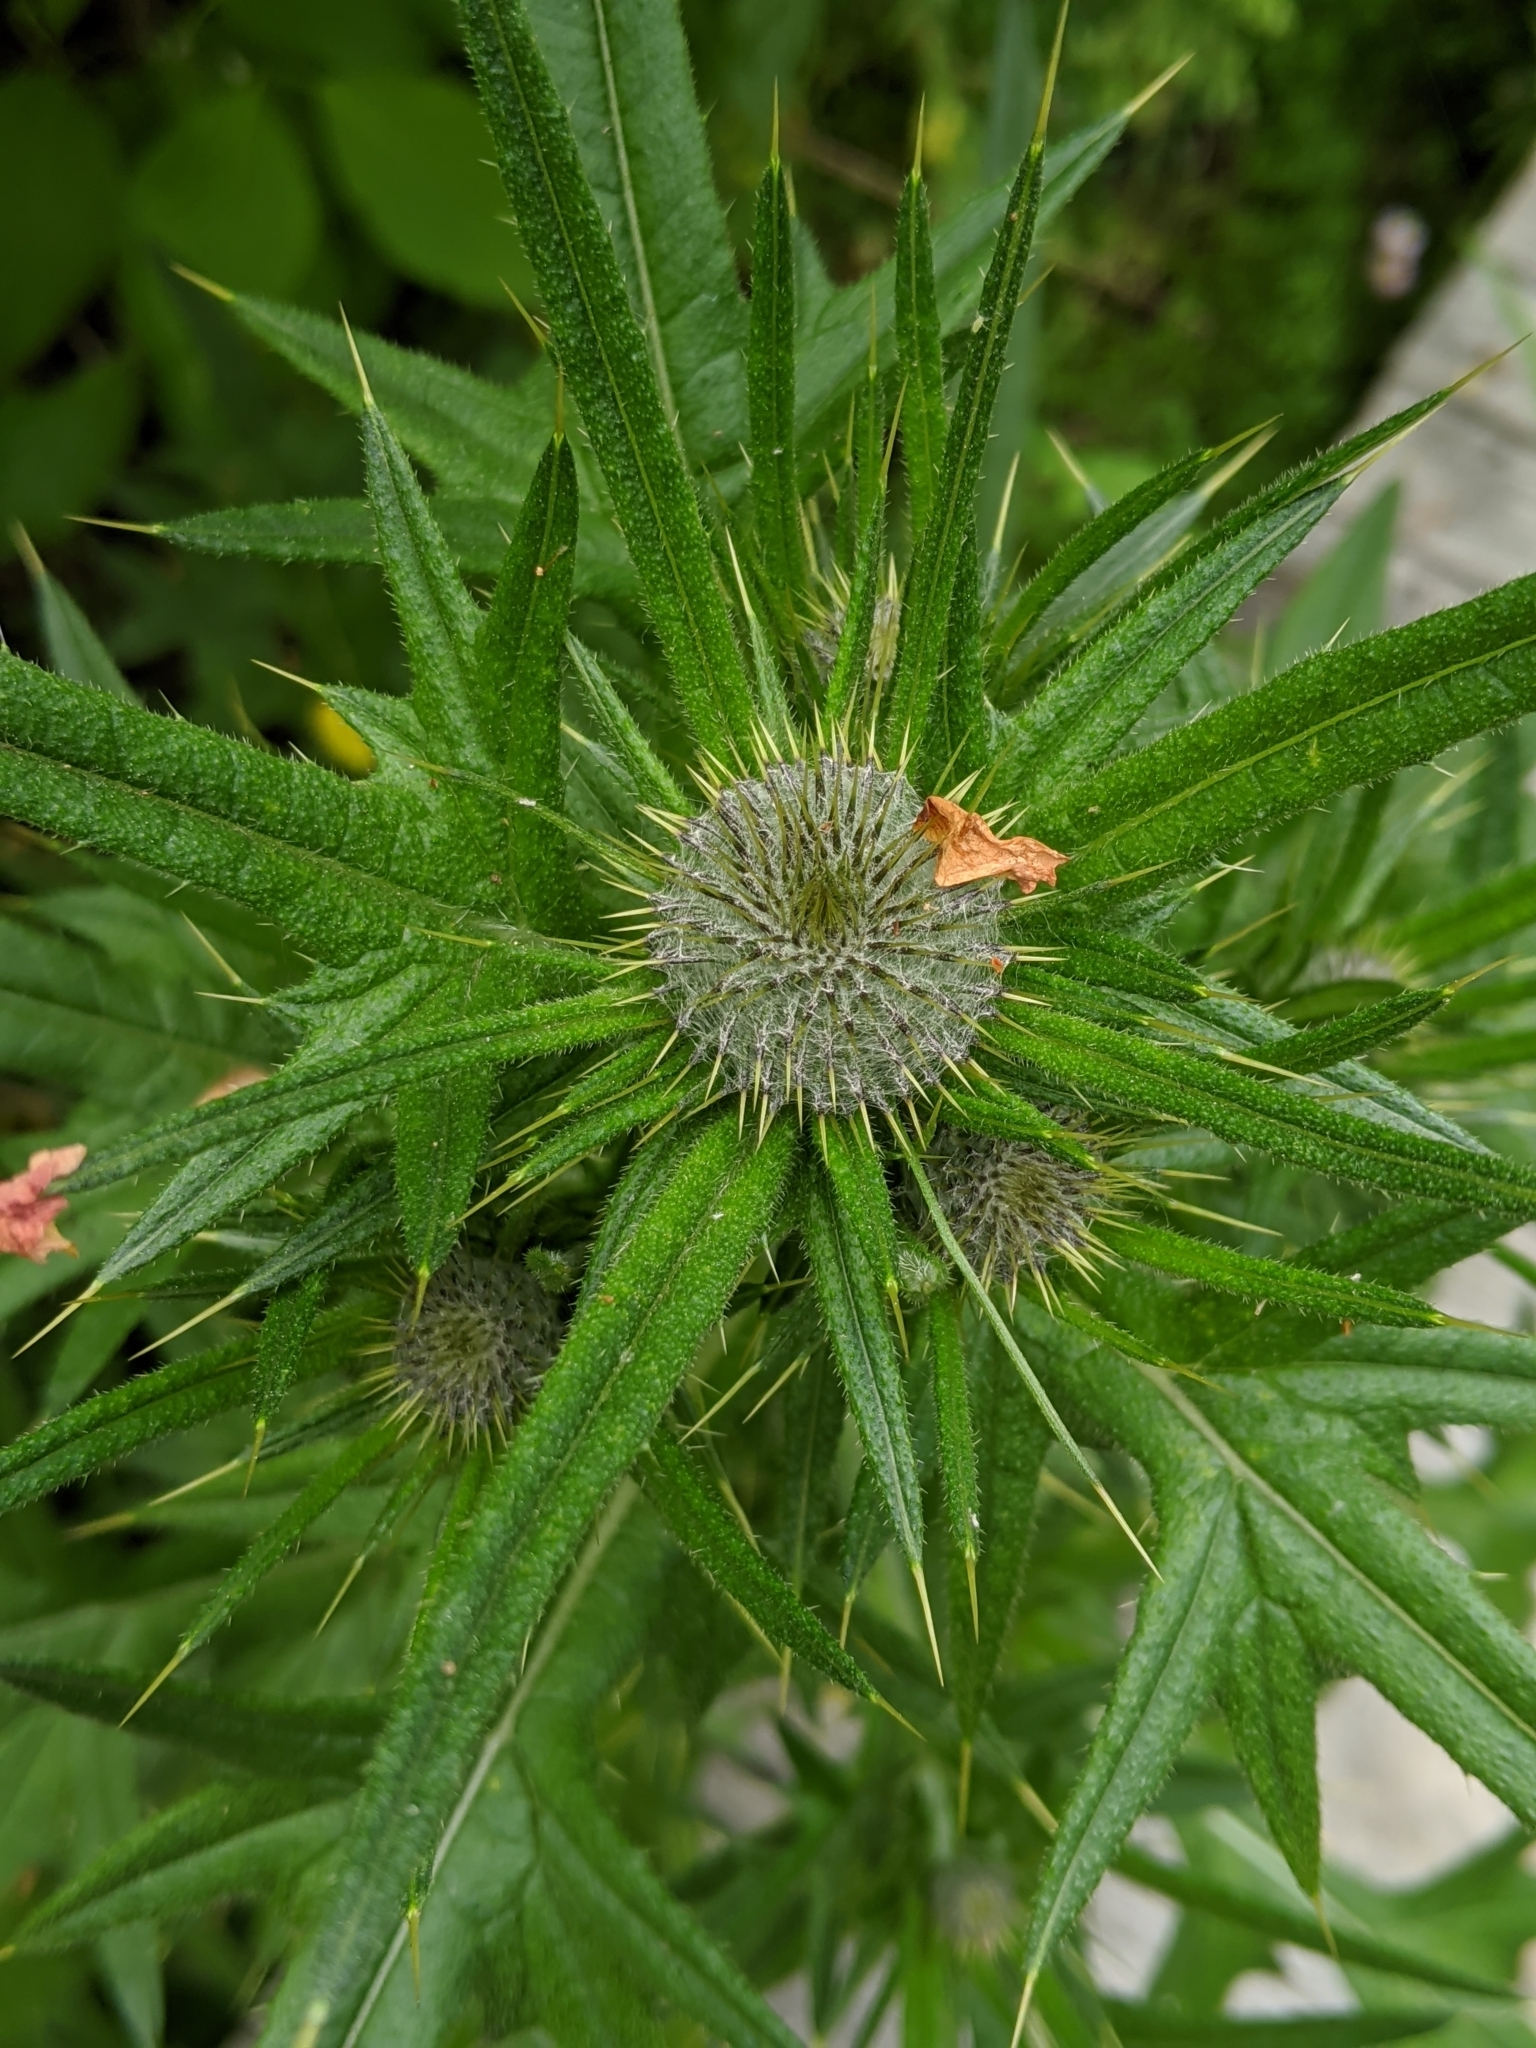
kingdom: Plantae
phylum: Tracheophyta
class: Magnoliopsida
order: Asterales
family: Asteraceae
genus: Cirsium
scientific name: Cirsium vulgare
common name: Bull thistle
